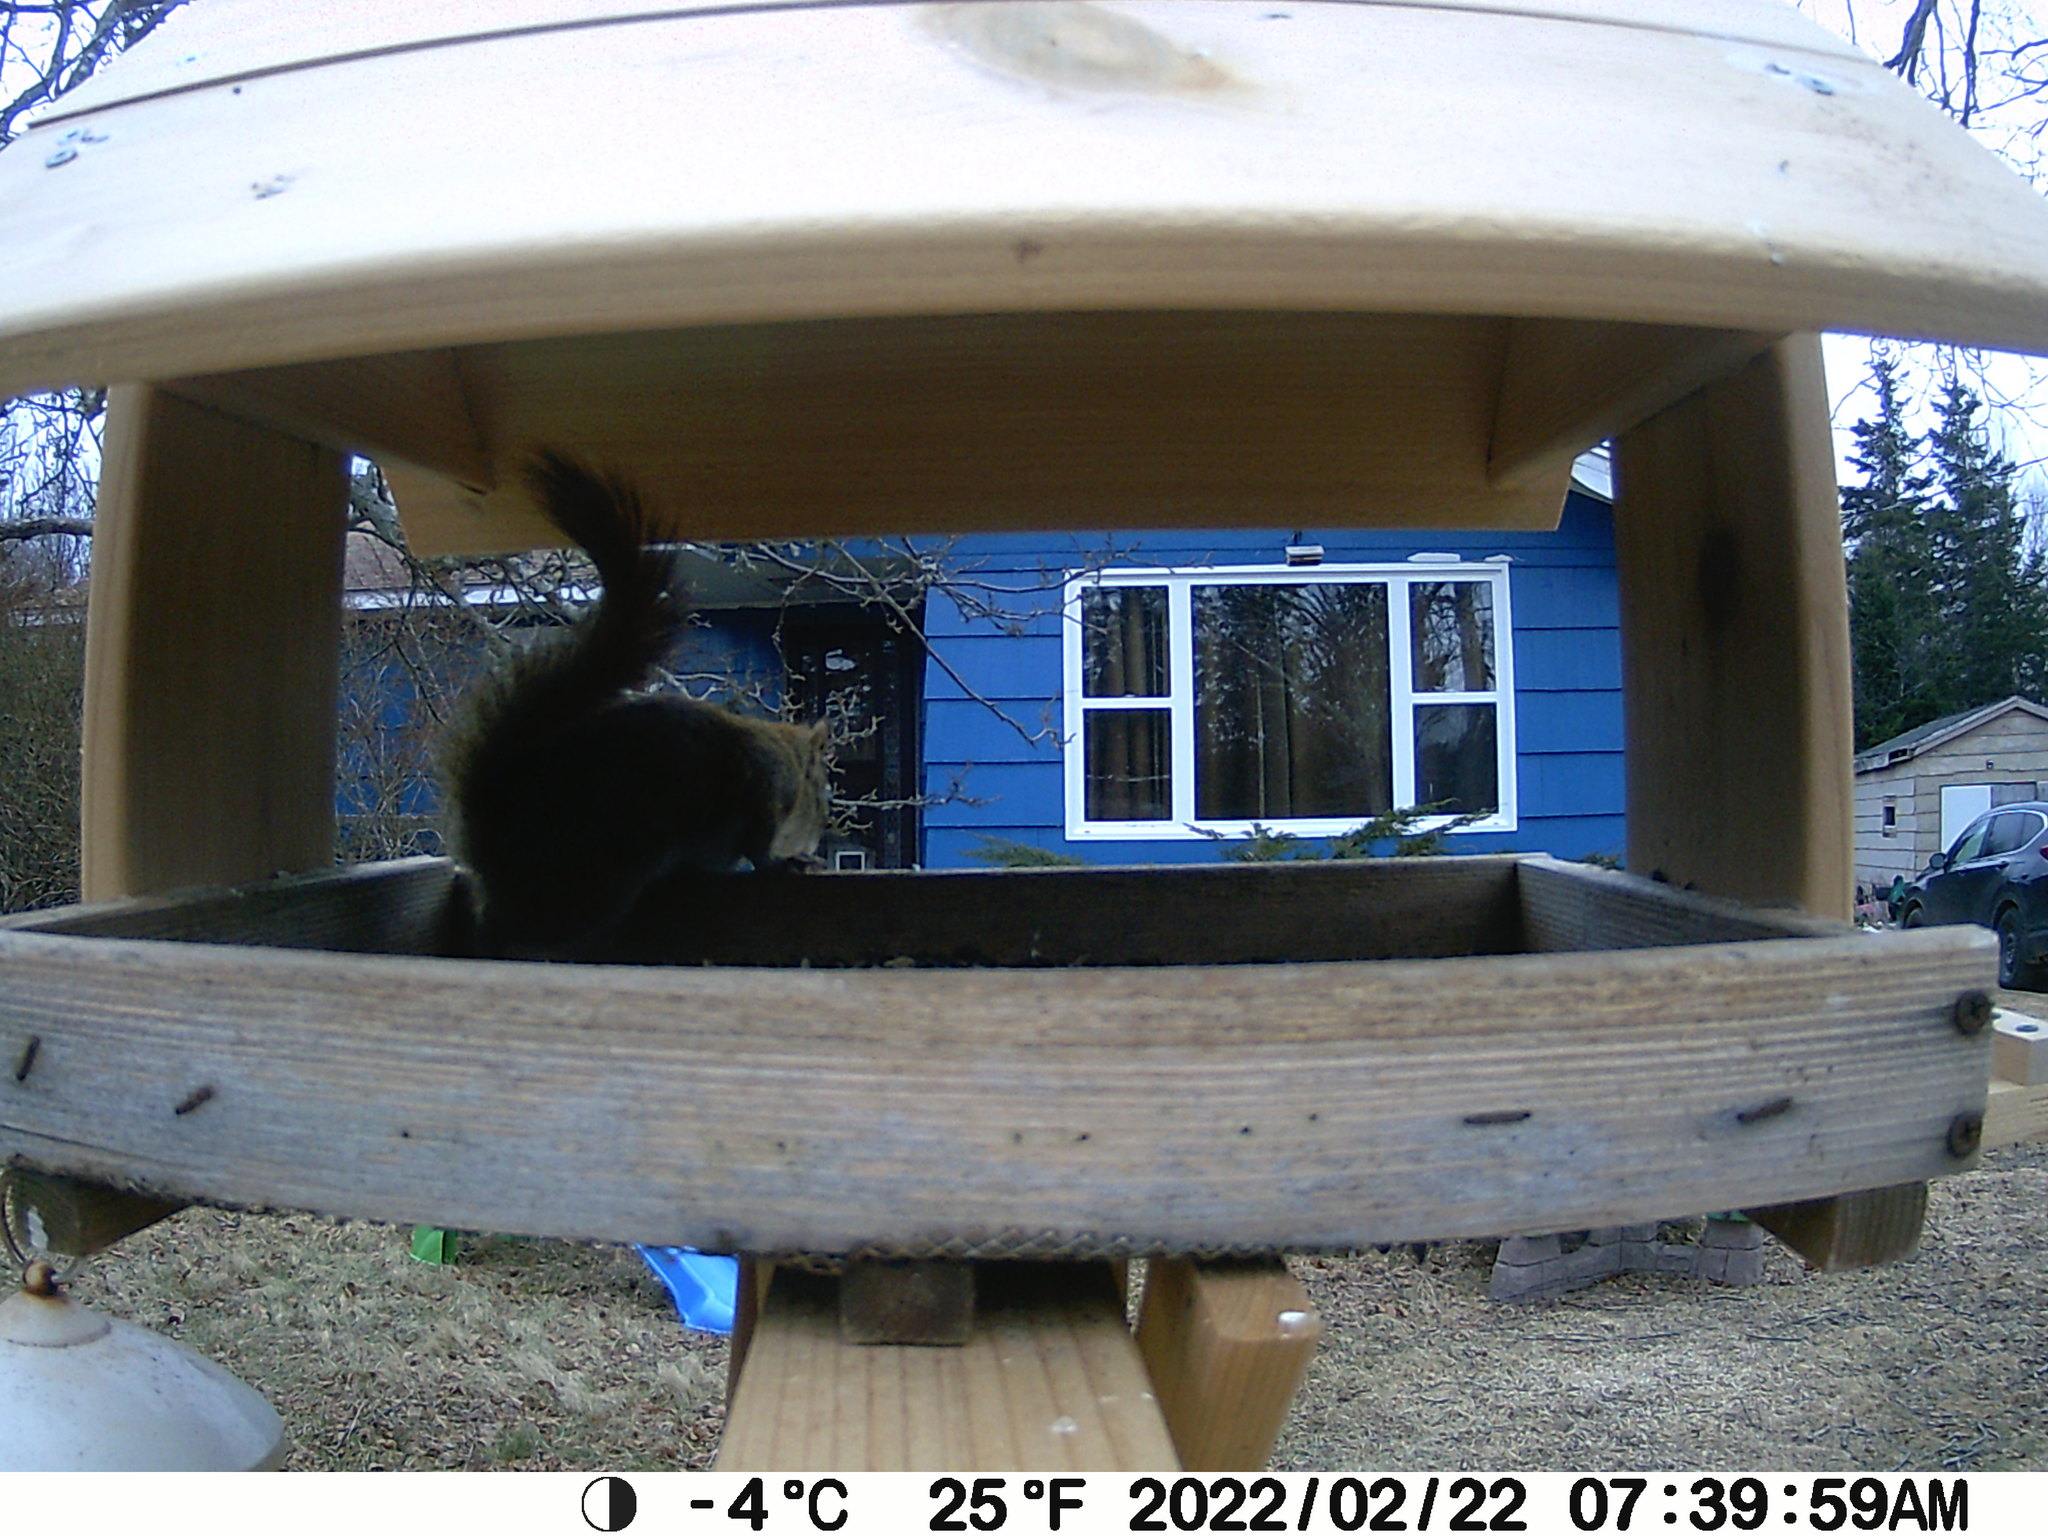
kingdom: Animalia
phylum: Chordata
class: Mammalia
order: Rodentia
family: Sciuridae
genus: Tamiasciurus
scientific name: Tamiasciurus hudsonicus
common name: Red squirrel
